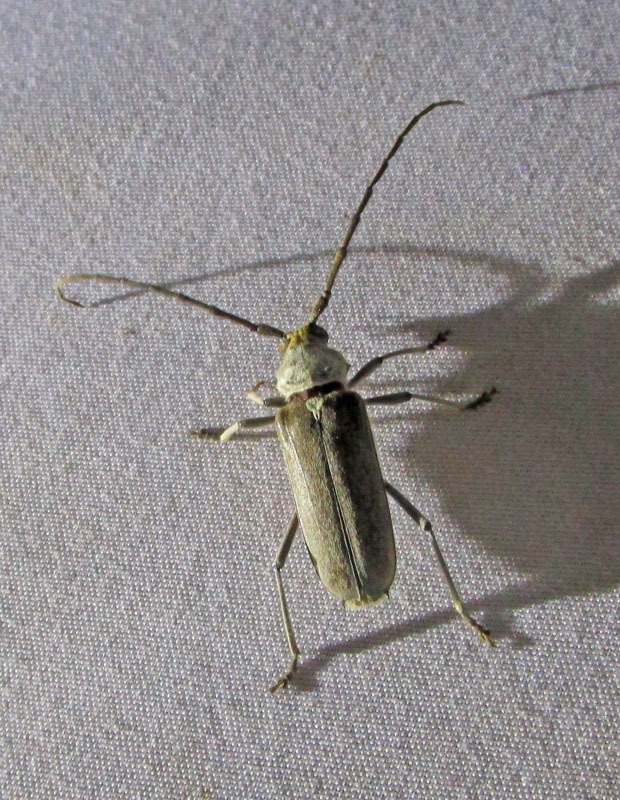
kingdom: Animalia
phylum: Arthropoda
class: Insecta
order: Coleoptera
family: Cerambycidae
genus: Gnaphalodes
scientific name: Gnaphalodes trachyderoides
